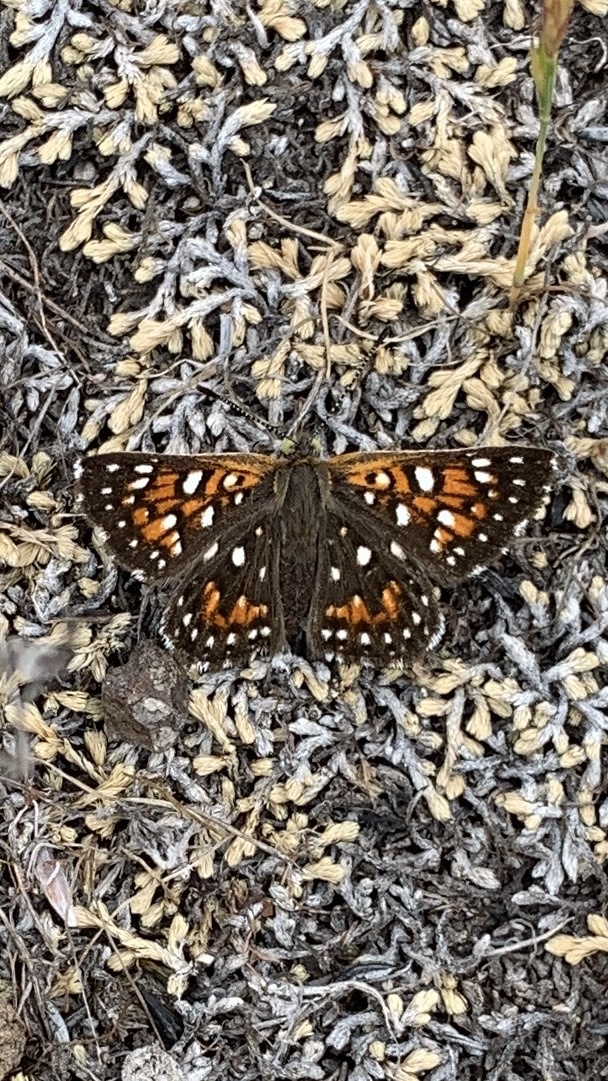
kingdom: Animalia
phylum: Arthropoda
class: Insecta
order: Lepidoptera
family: Riodinidae
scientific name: Riodinidae
